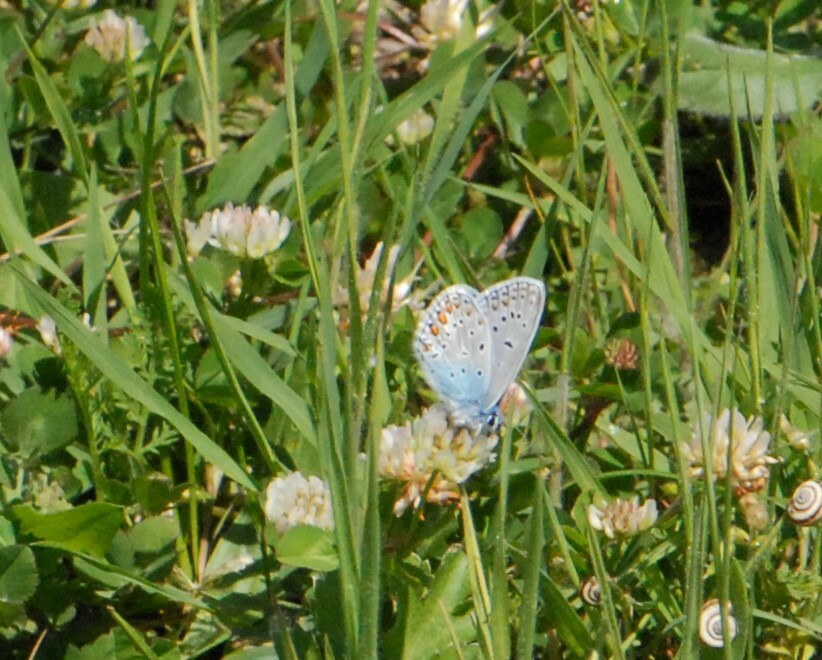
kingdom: Animalia
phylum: Arthropoda
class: Insecta
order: Lepidoptera
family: Lycaenidae
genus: Polyommatus
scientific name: Polyommatus icarus
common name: Common blue
